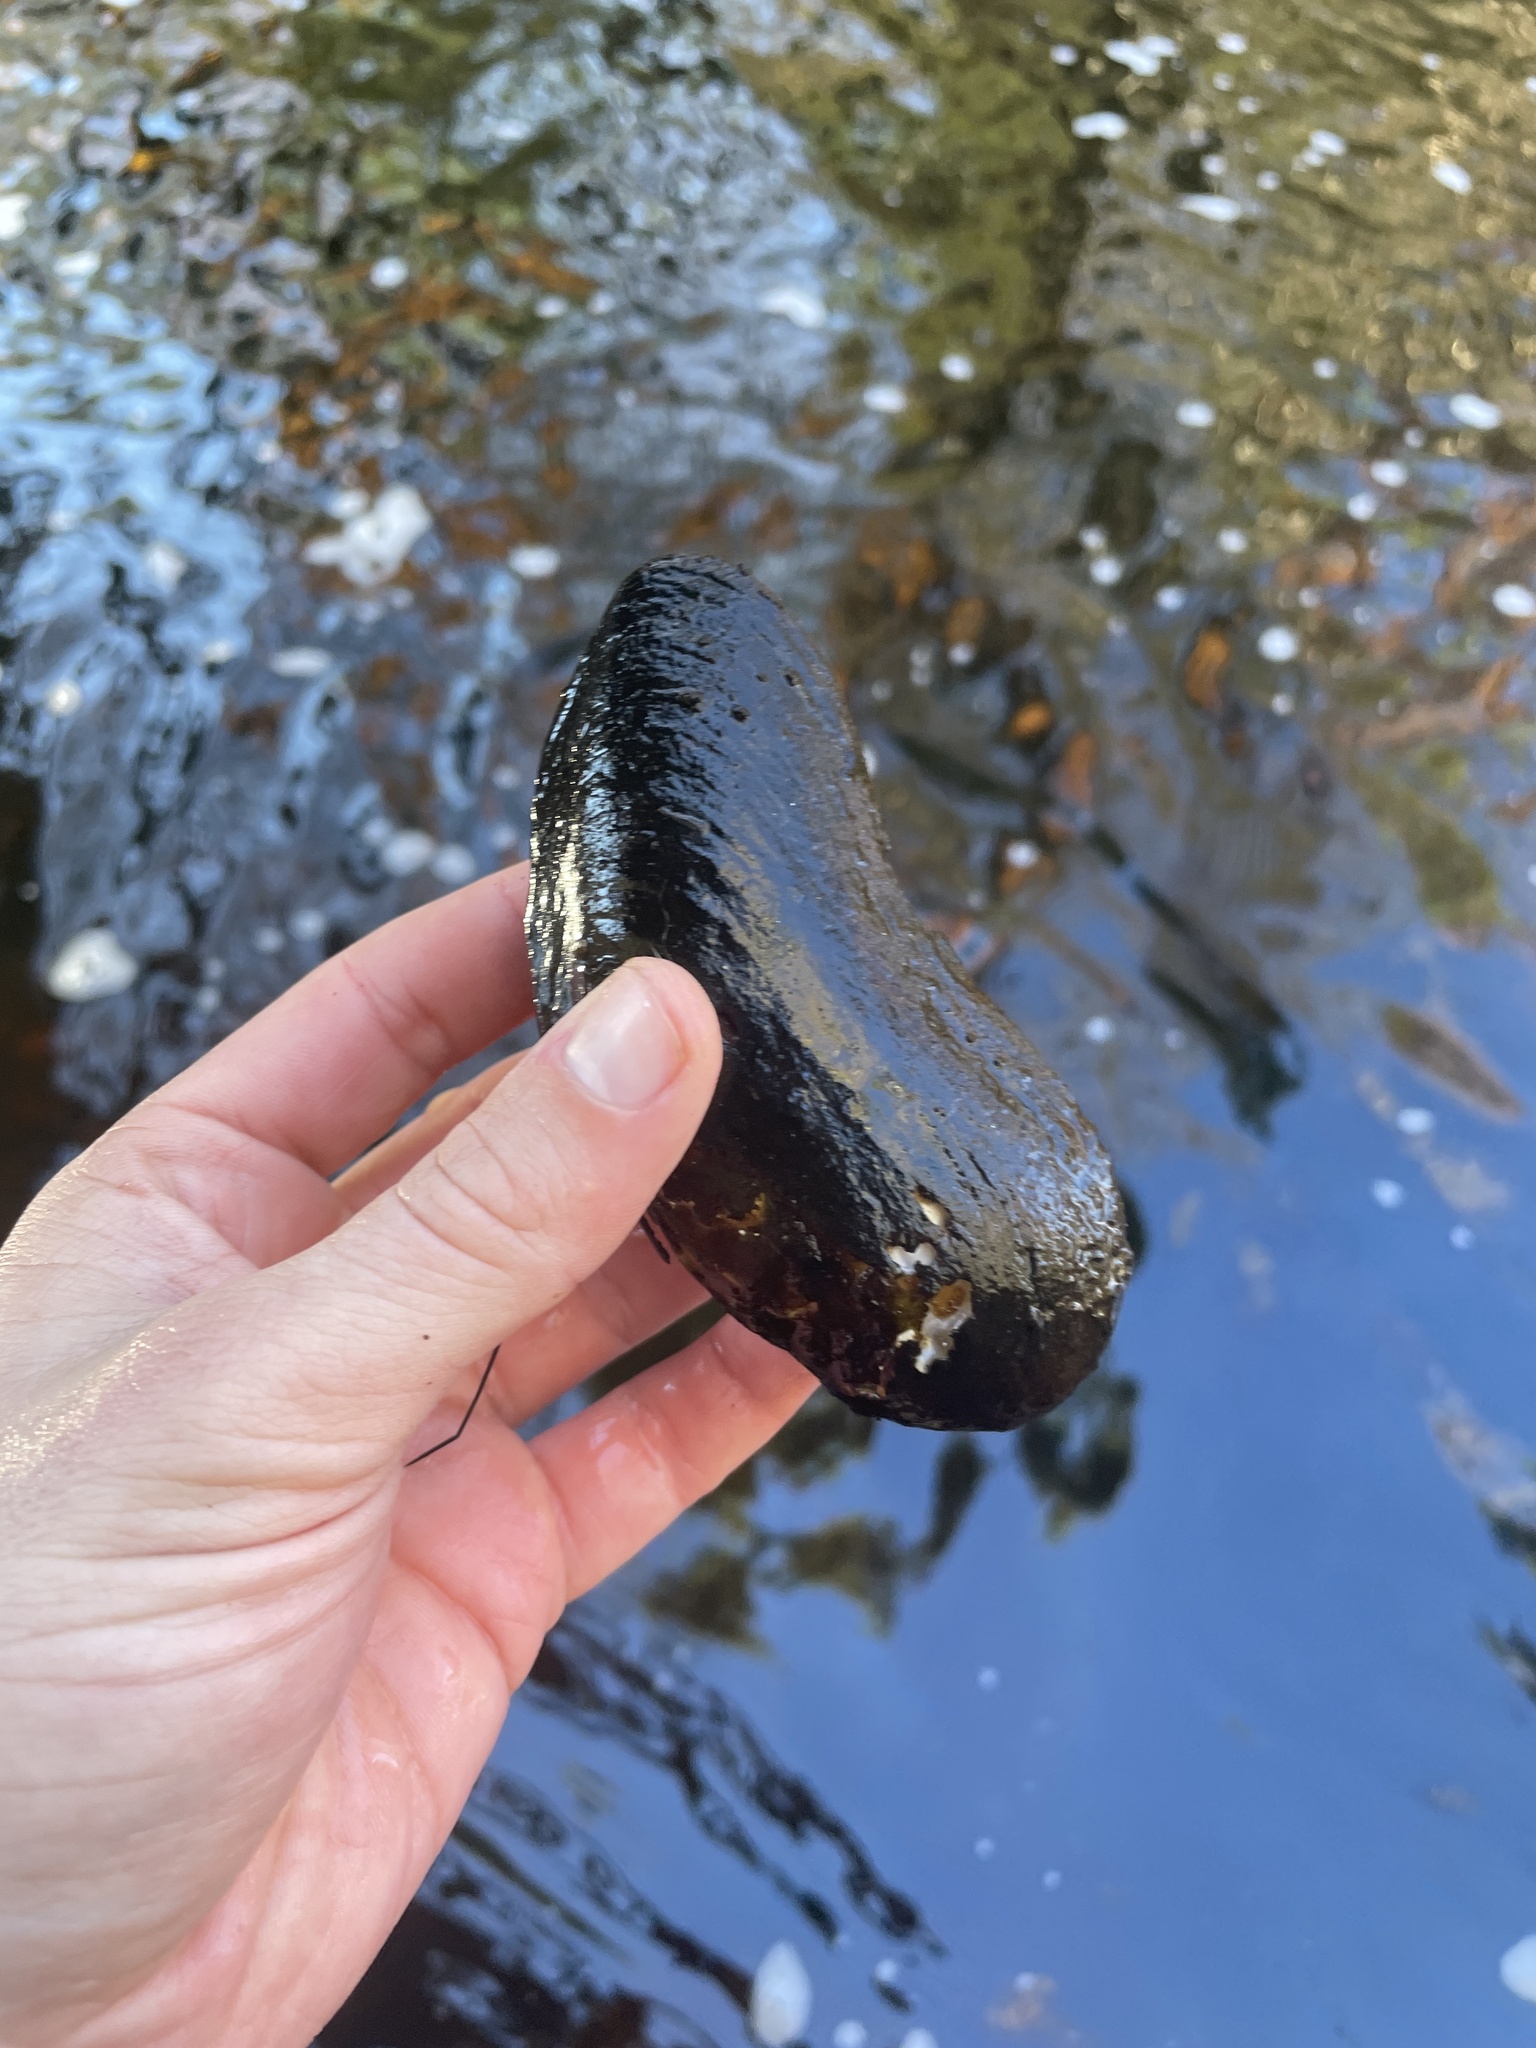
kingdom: Animalia
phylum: Mollusca
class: Bivalvia
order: Unionida
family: Margaritiferidae
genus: Margaritifera
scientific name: Margaritifera margaritifera
